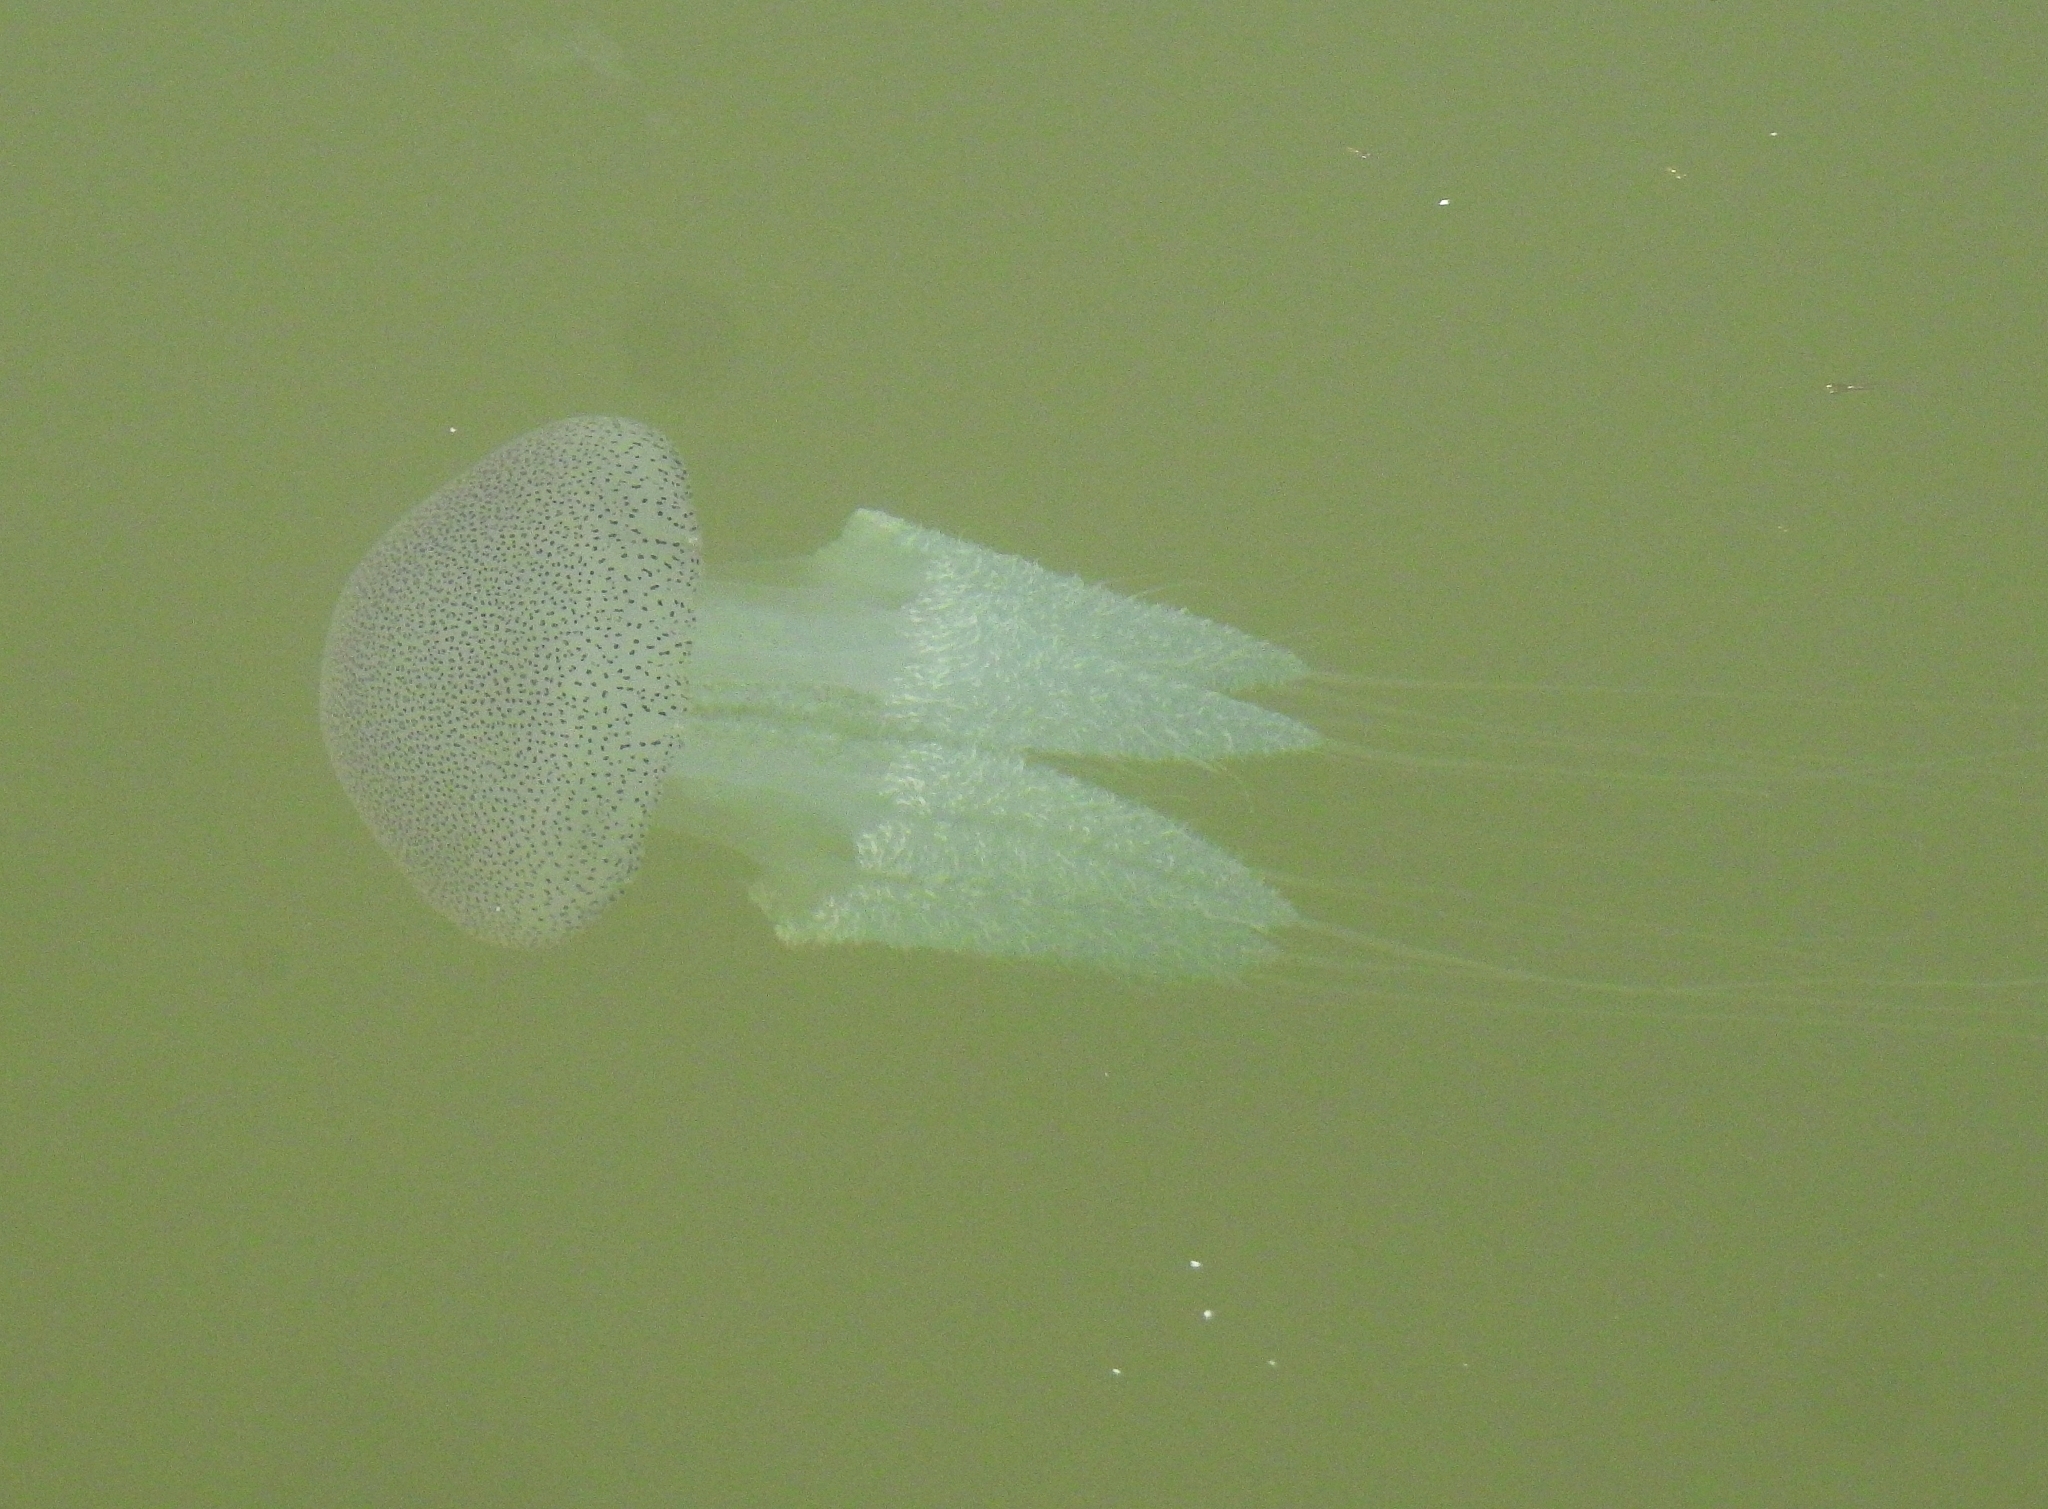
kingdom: Animalia
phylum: Cnidaria
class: Scyphozoa
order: Rhizostomeae
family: Catostylidae
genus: Acromitus
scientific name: Acromitus flagellatus
